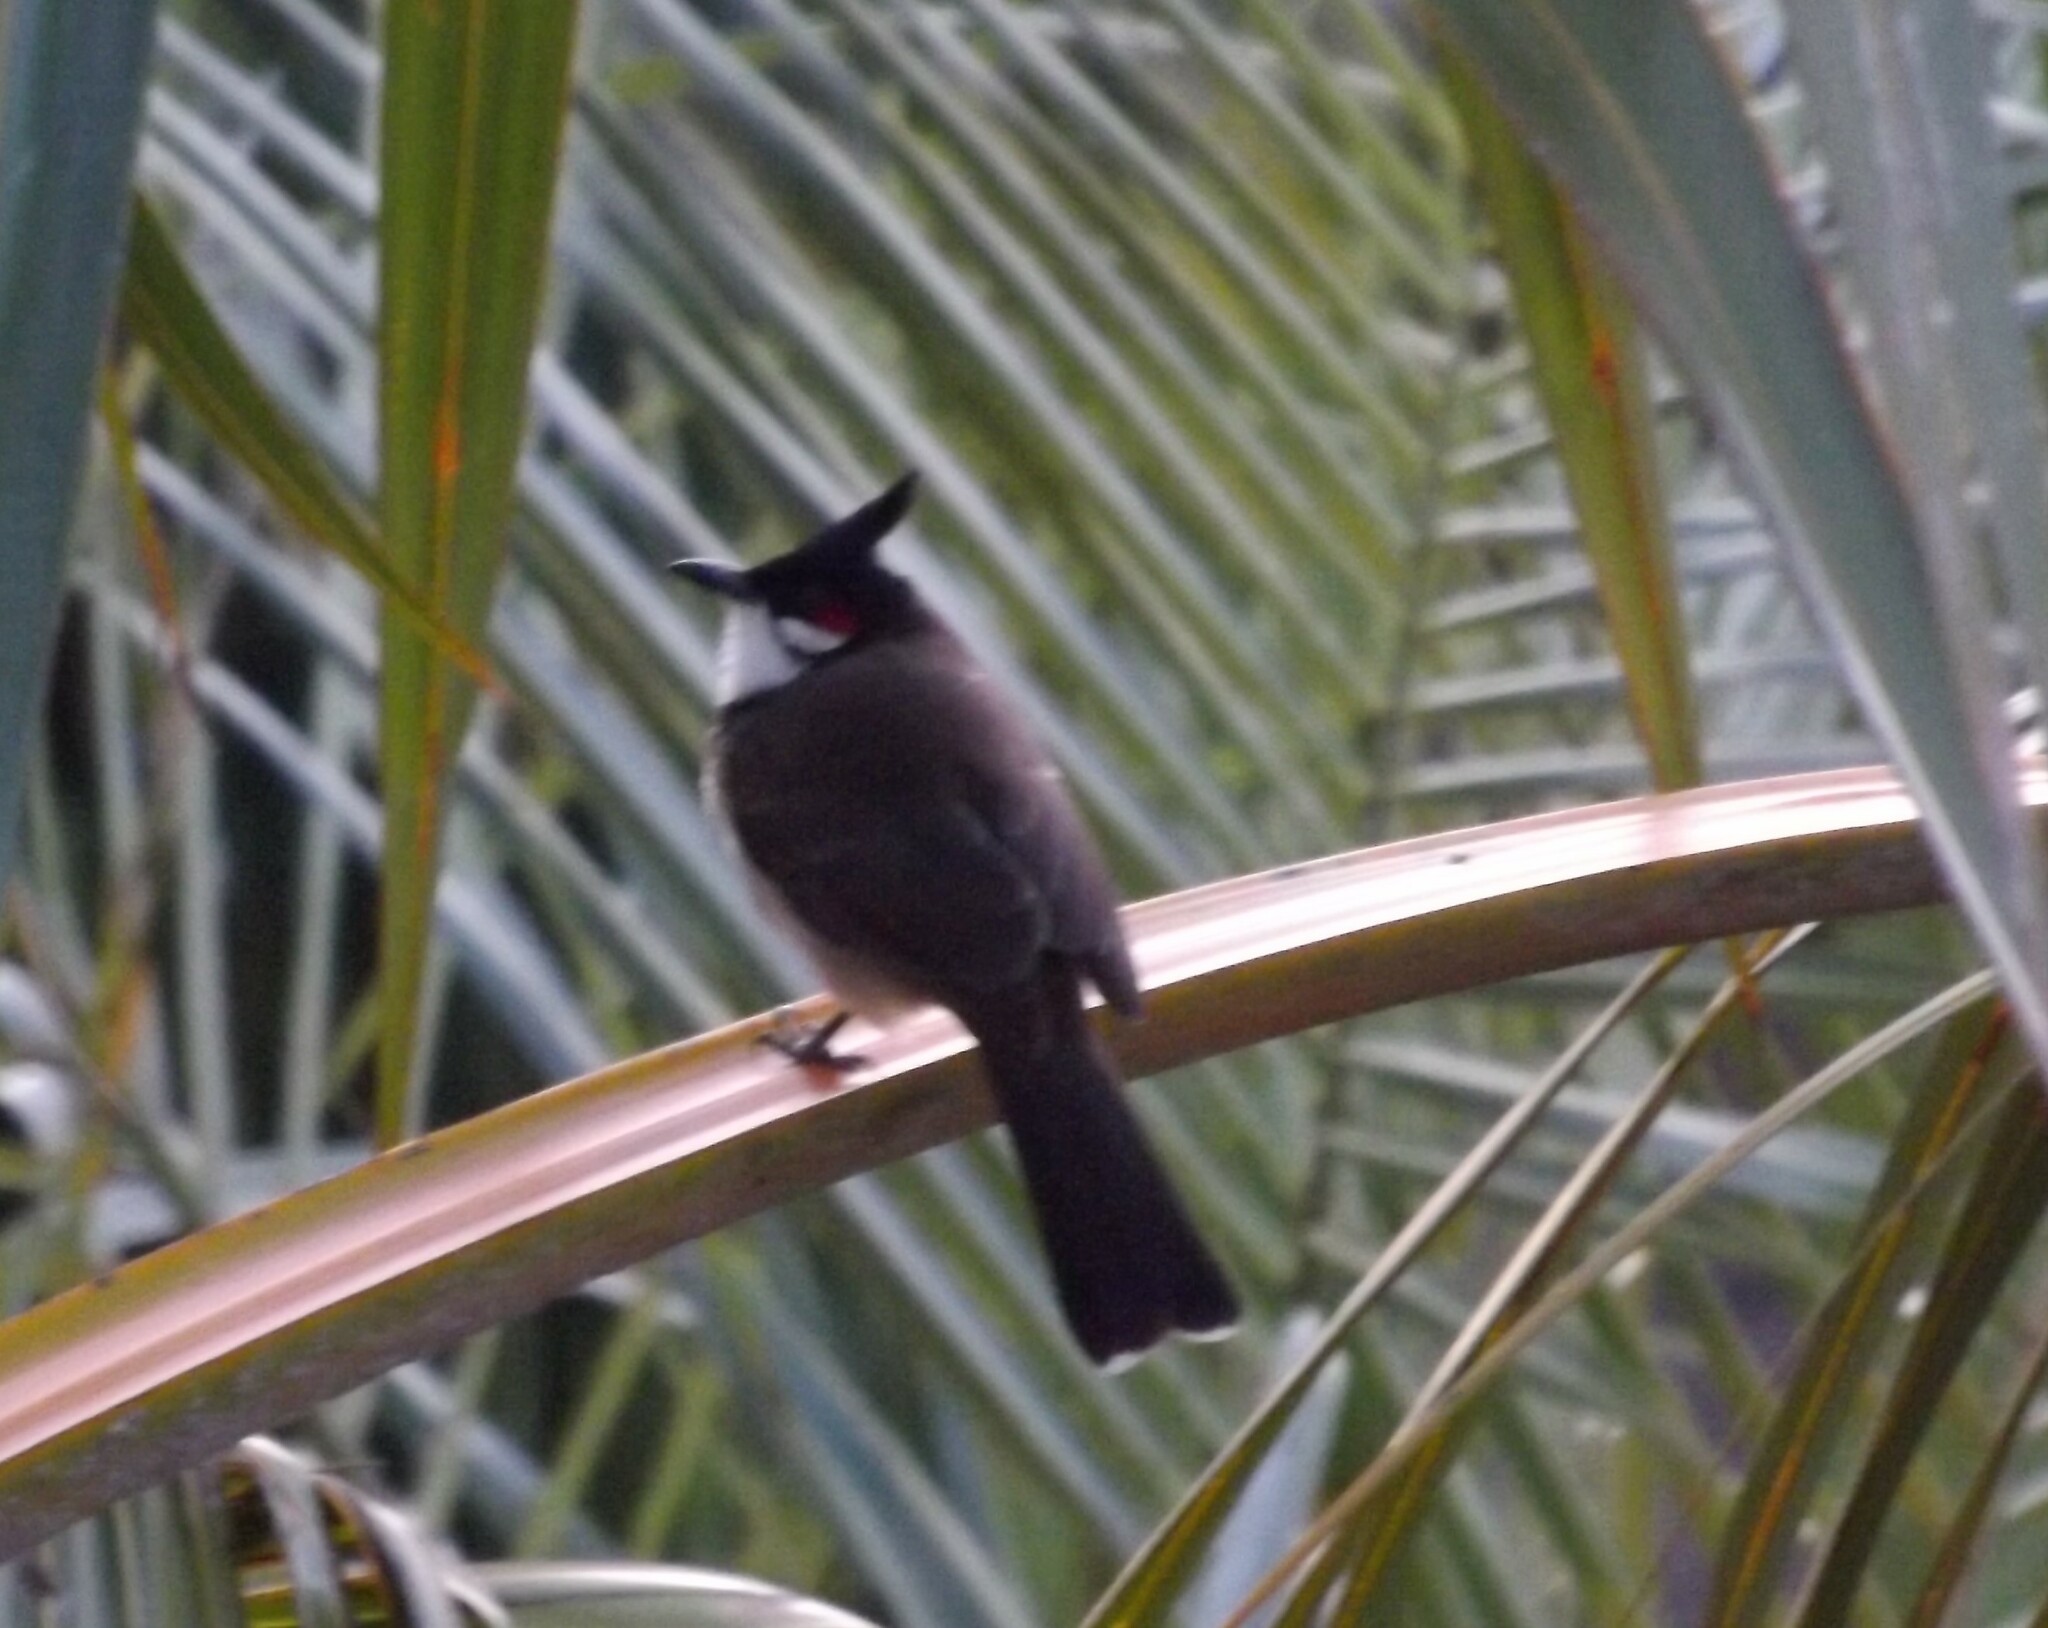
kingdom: Animalia
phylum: Chordata
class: Aves
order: Passeriformes
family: Pycnonotidae
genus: Pycnonotus
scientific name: Pycnonotus jocosus
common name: Red-whiskered bulbul
